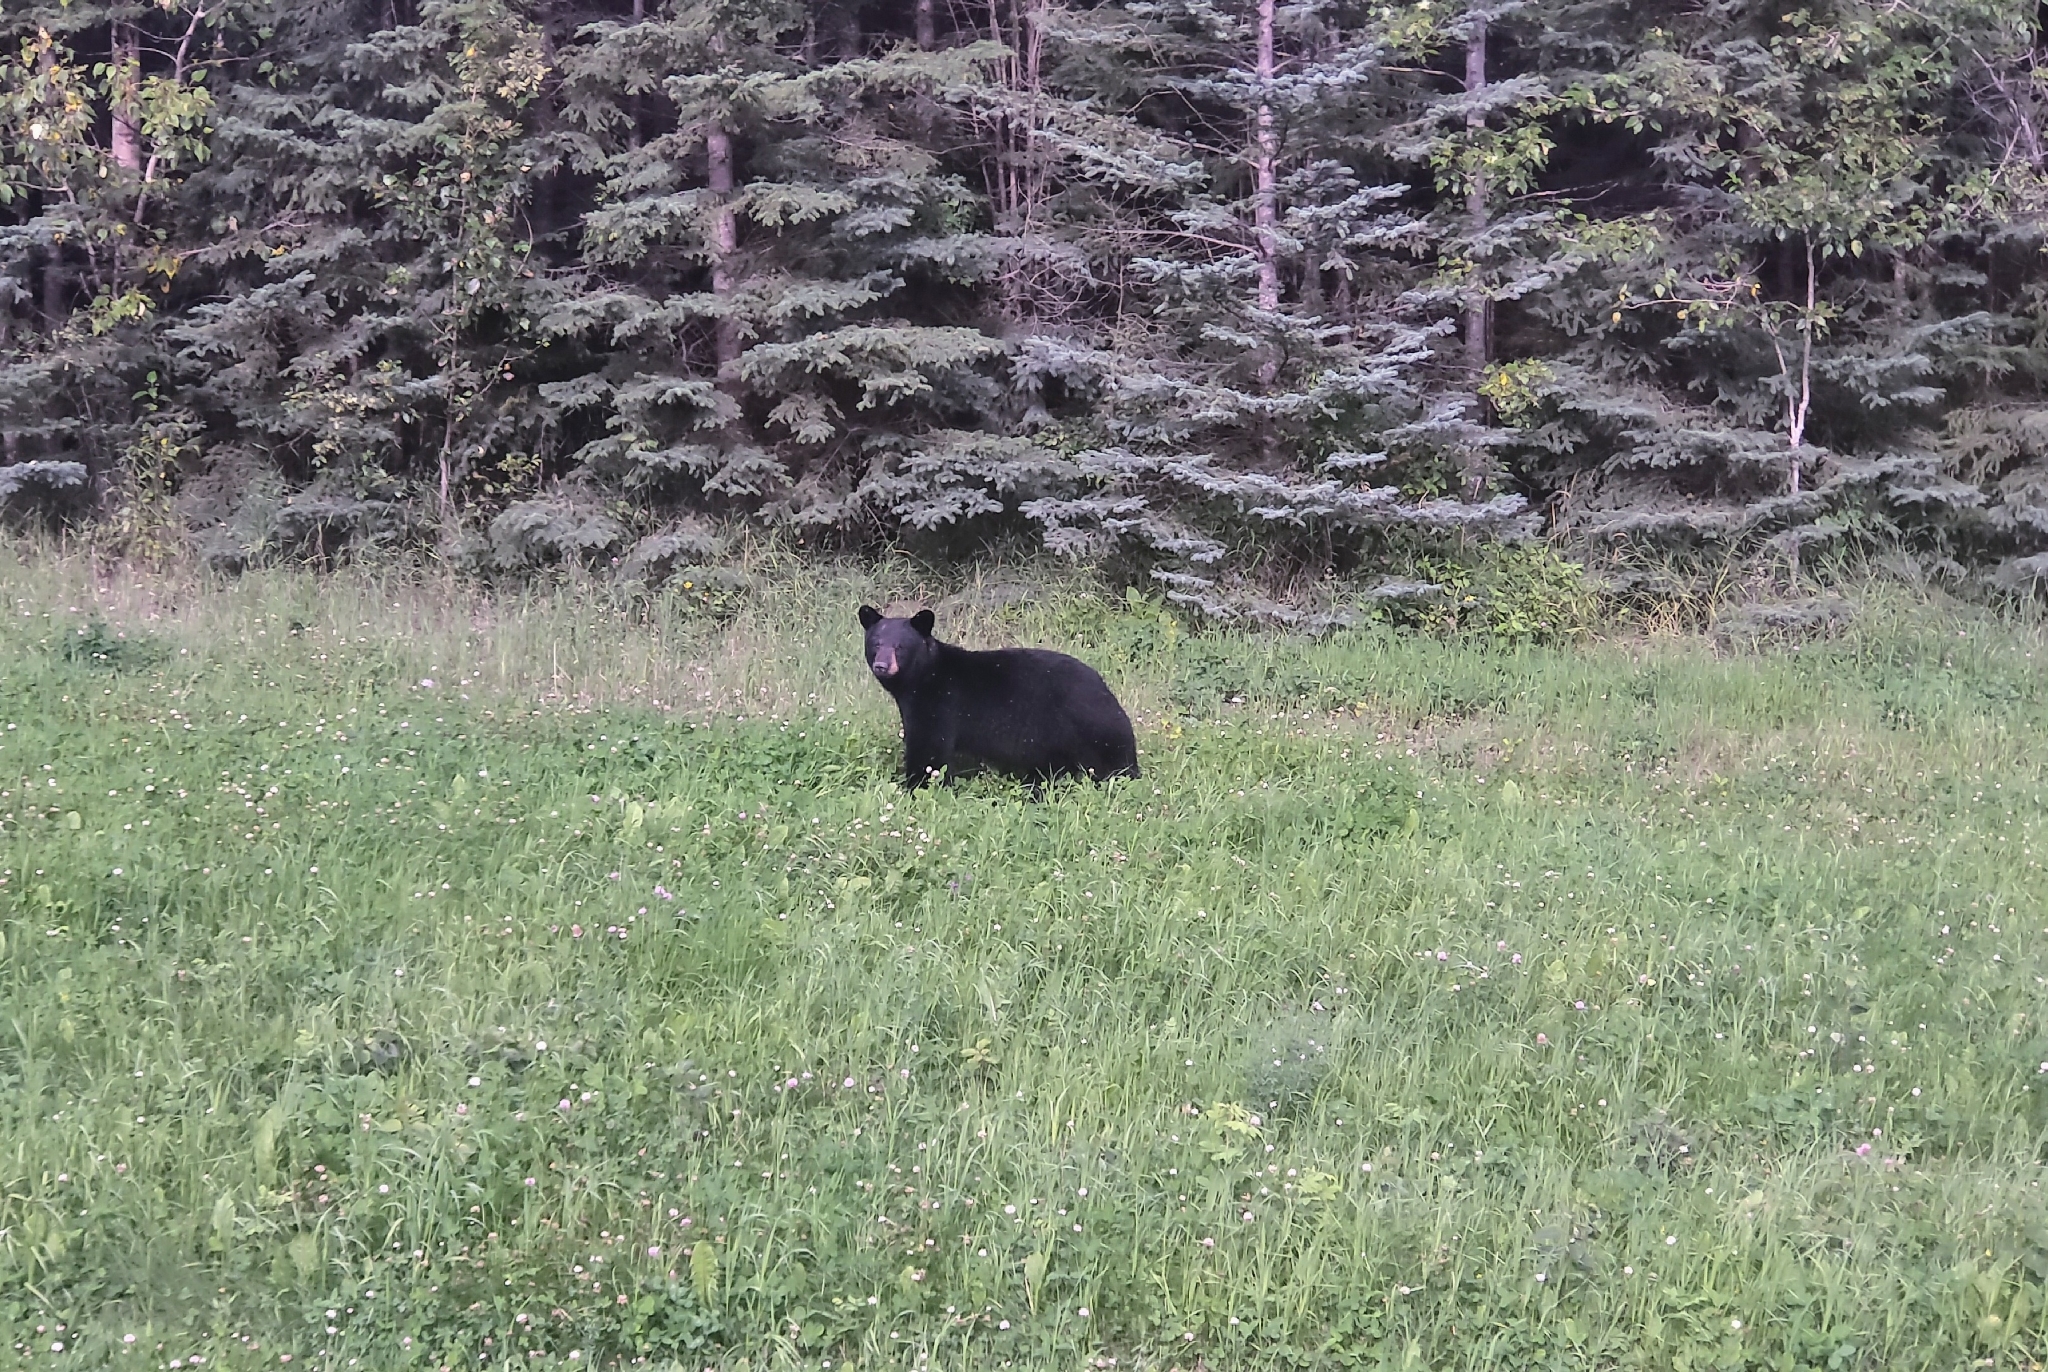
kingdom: Animalia
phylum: Chordata
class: Mammalia
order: Carnivora
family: Ursidae
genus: Ursus
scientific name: Ursus americanus
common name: American black bear
